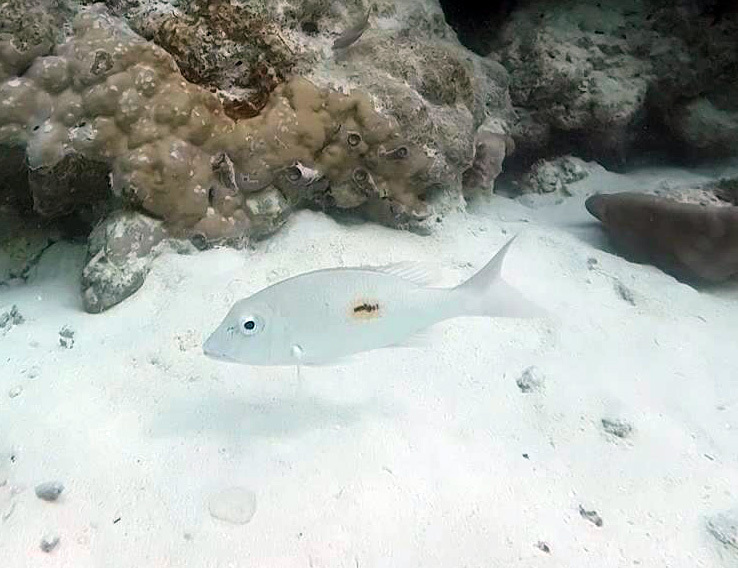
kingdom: Animalia
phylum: Chordata
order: Perciformes
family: Lethrinidae
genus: Lethrinus
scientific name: Lethrinus harak
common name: Blackspot emperor
